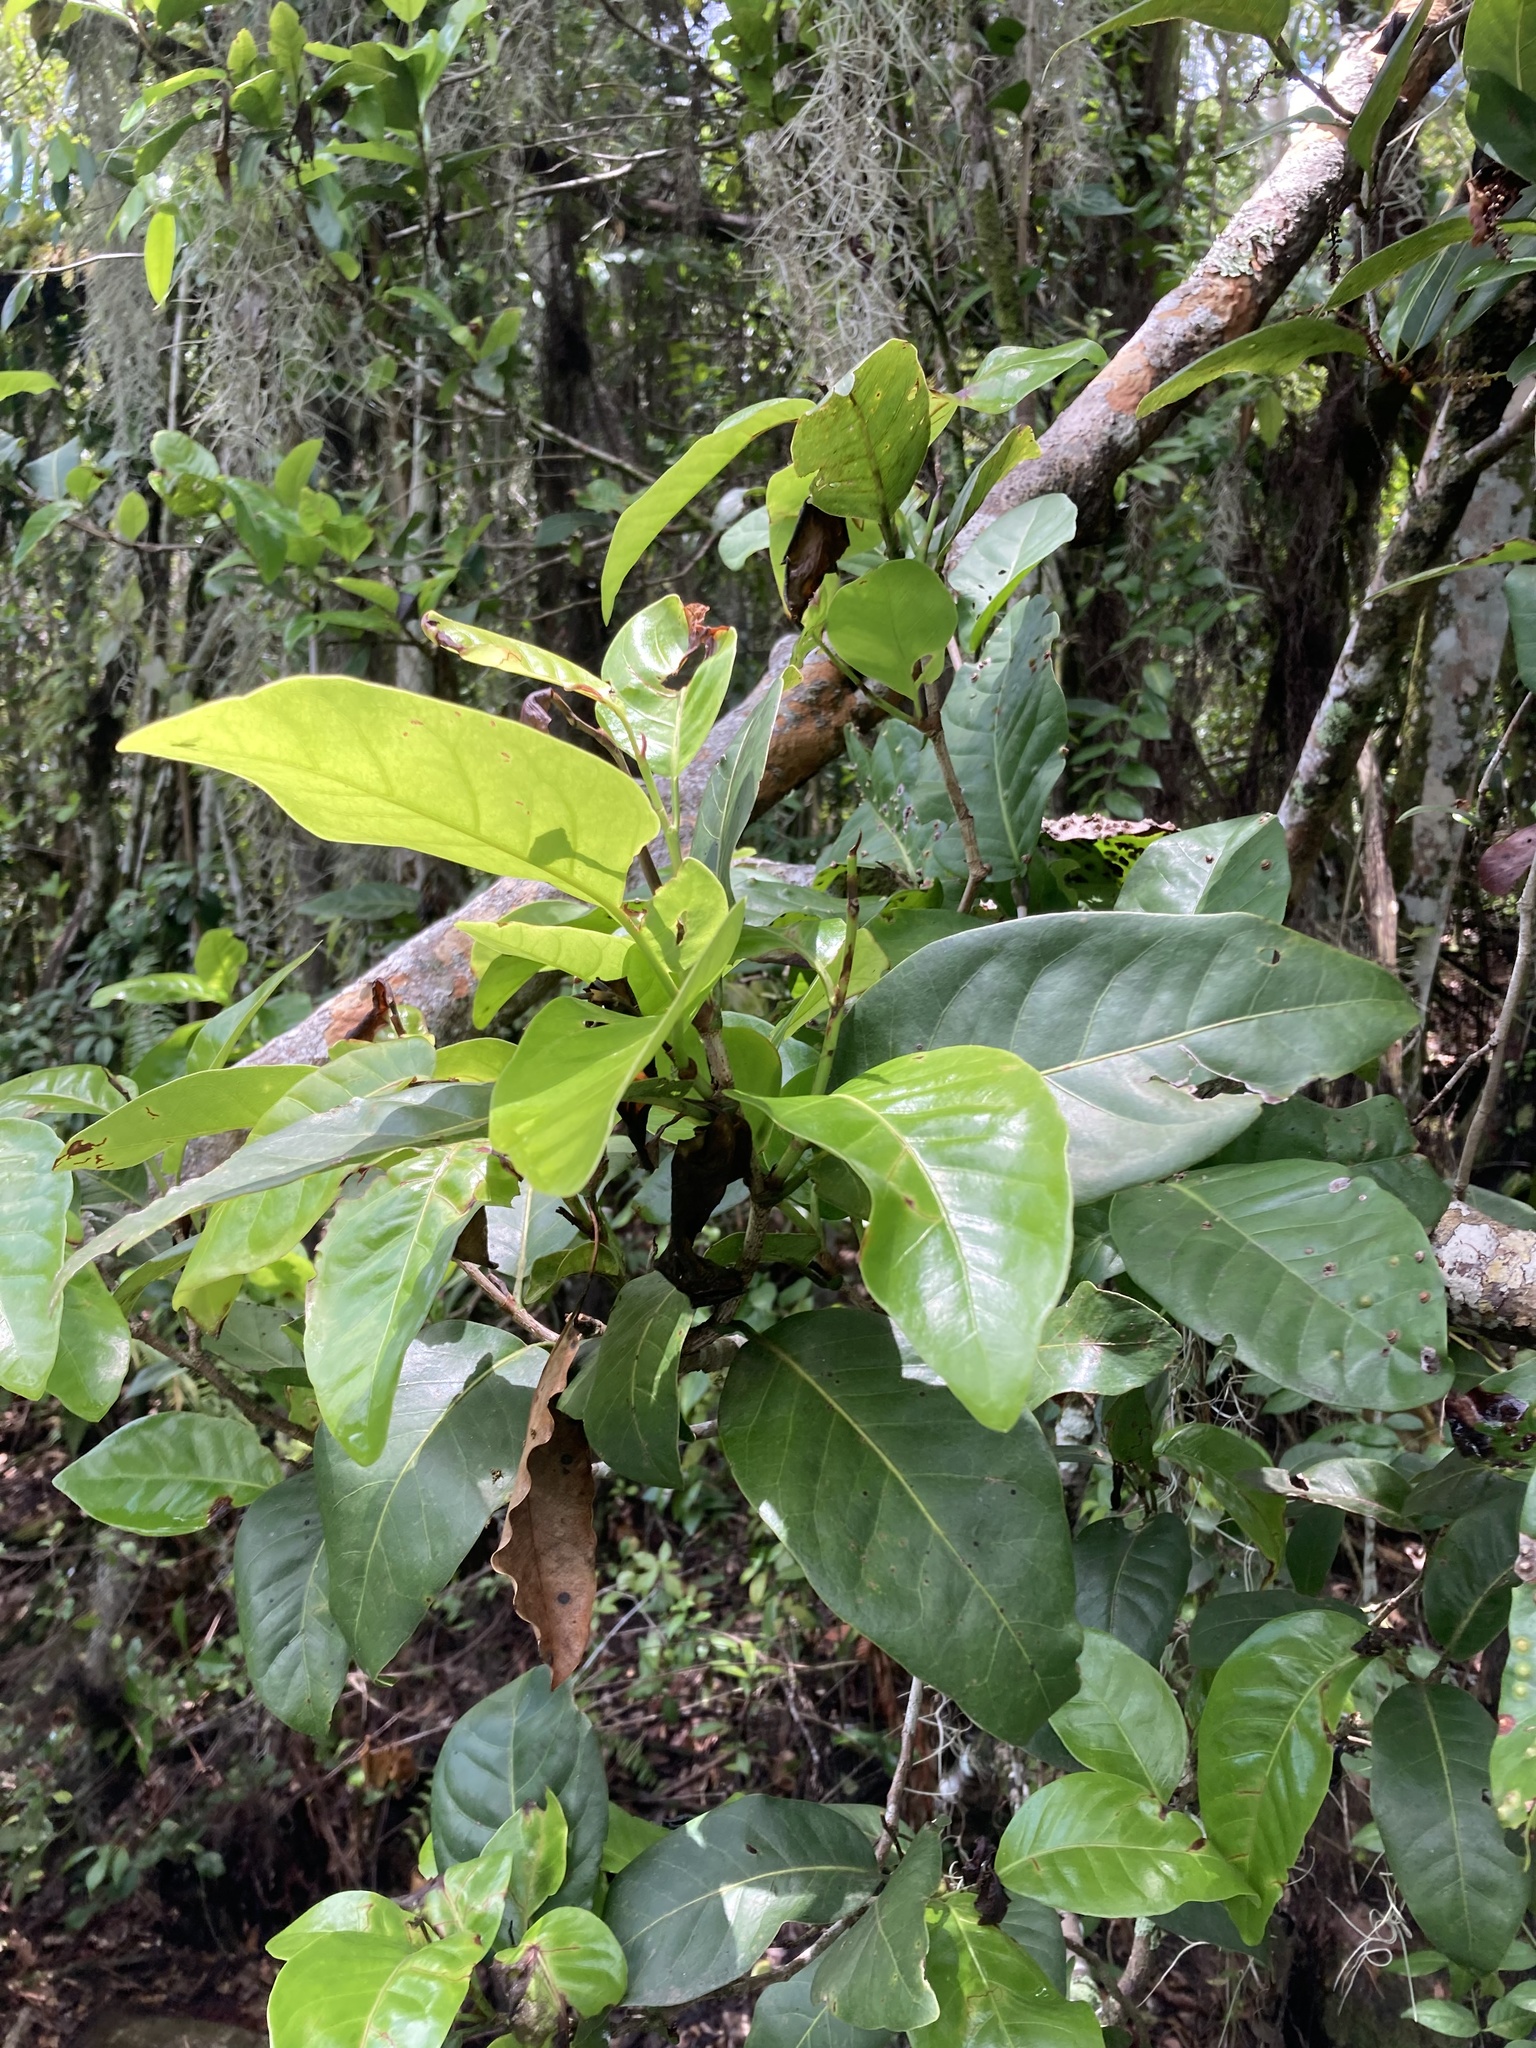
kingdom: Plantae
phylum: Tracheophyta
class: Magnoliopsida
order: Caryophyllales
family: Polygonaceae
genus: Coccoloba
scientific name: Coccoloba diversifolia
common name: Pigeon-plum
